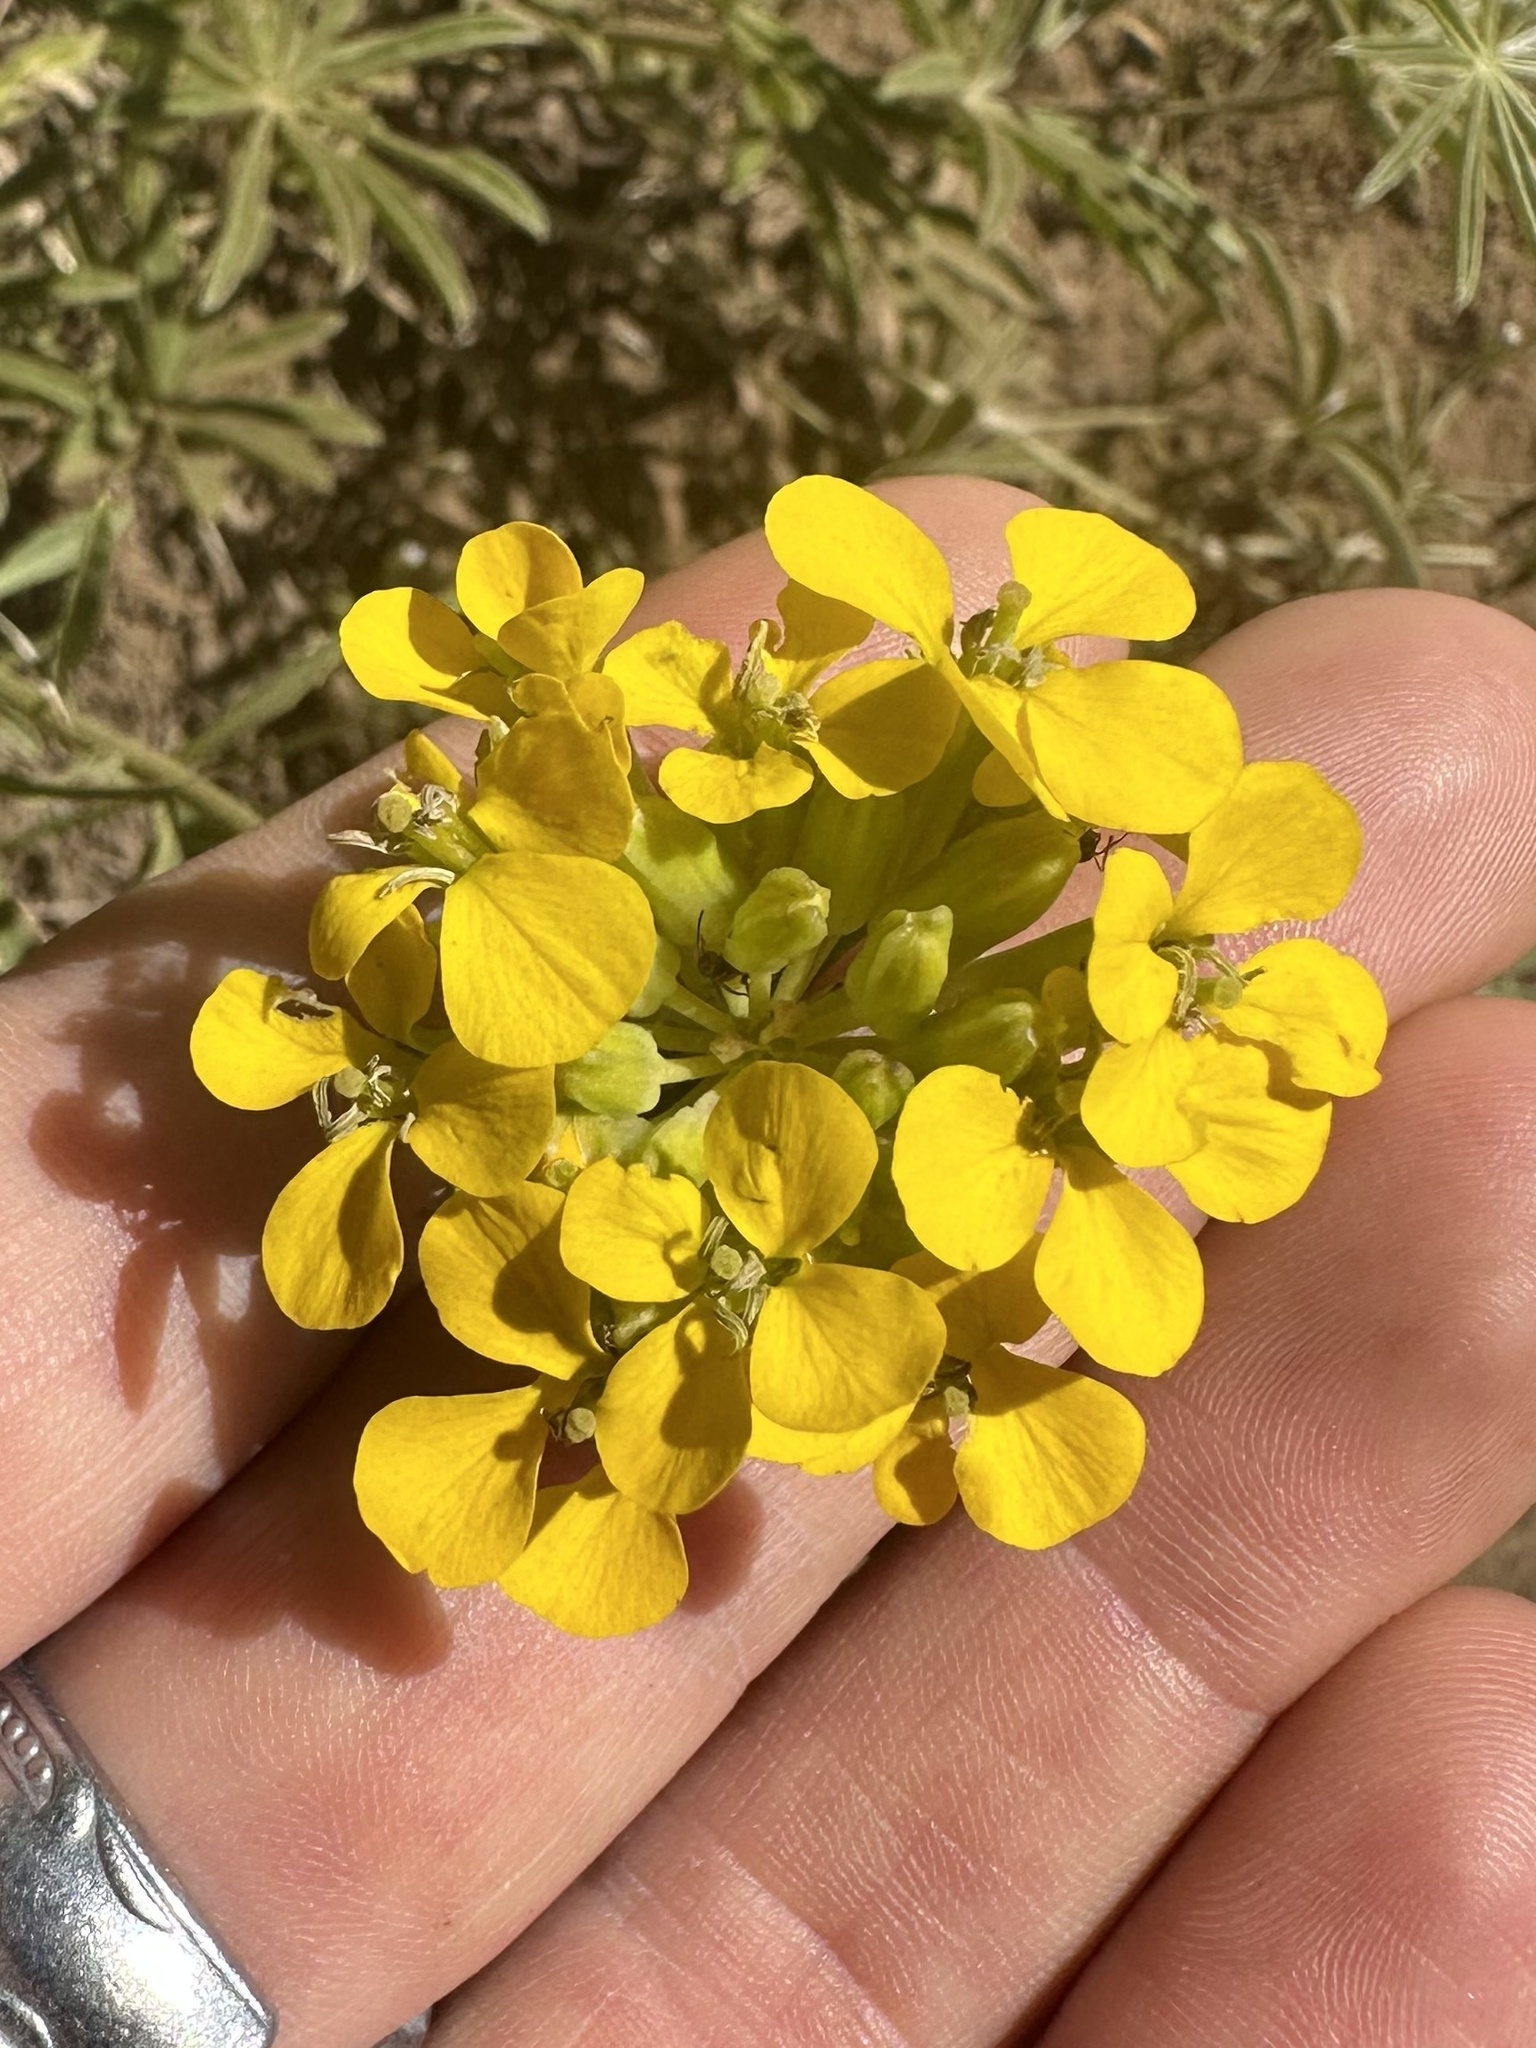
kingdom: Plantae
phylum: Tracheophyta
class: Magnoliopsida
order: Brassicales
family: Brassicaceae
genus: Erysimum
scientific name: Erysimum capitatum
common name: Western wallflower
